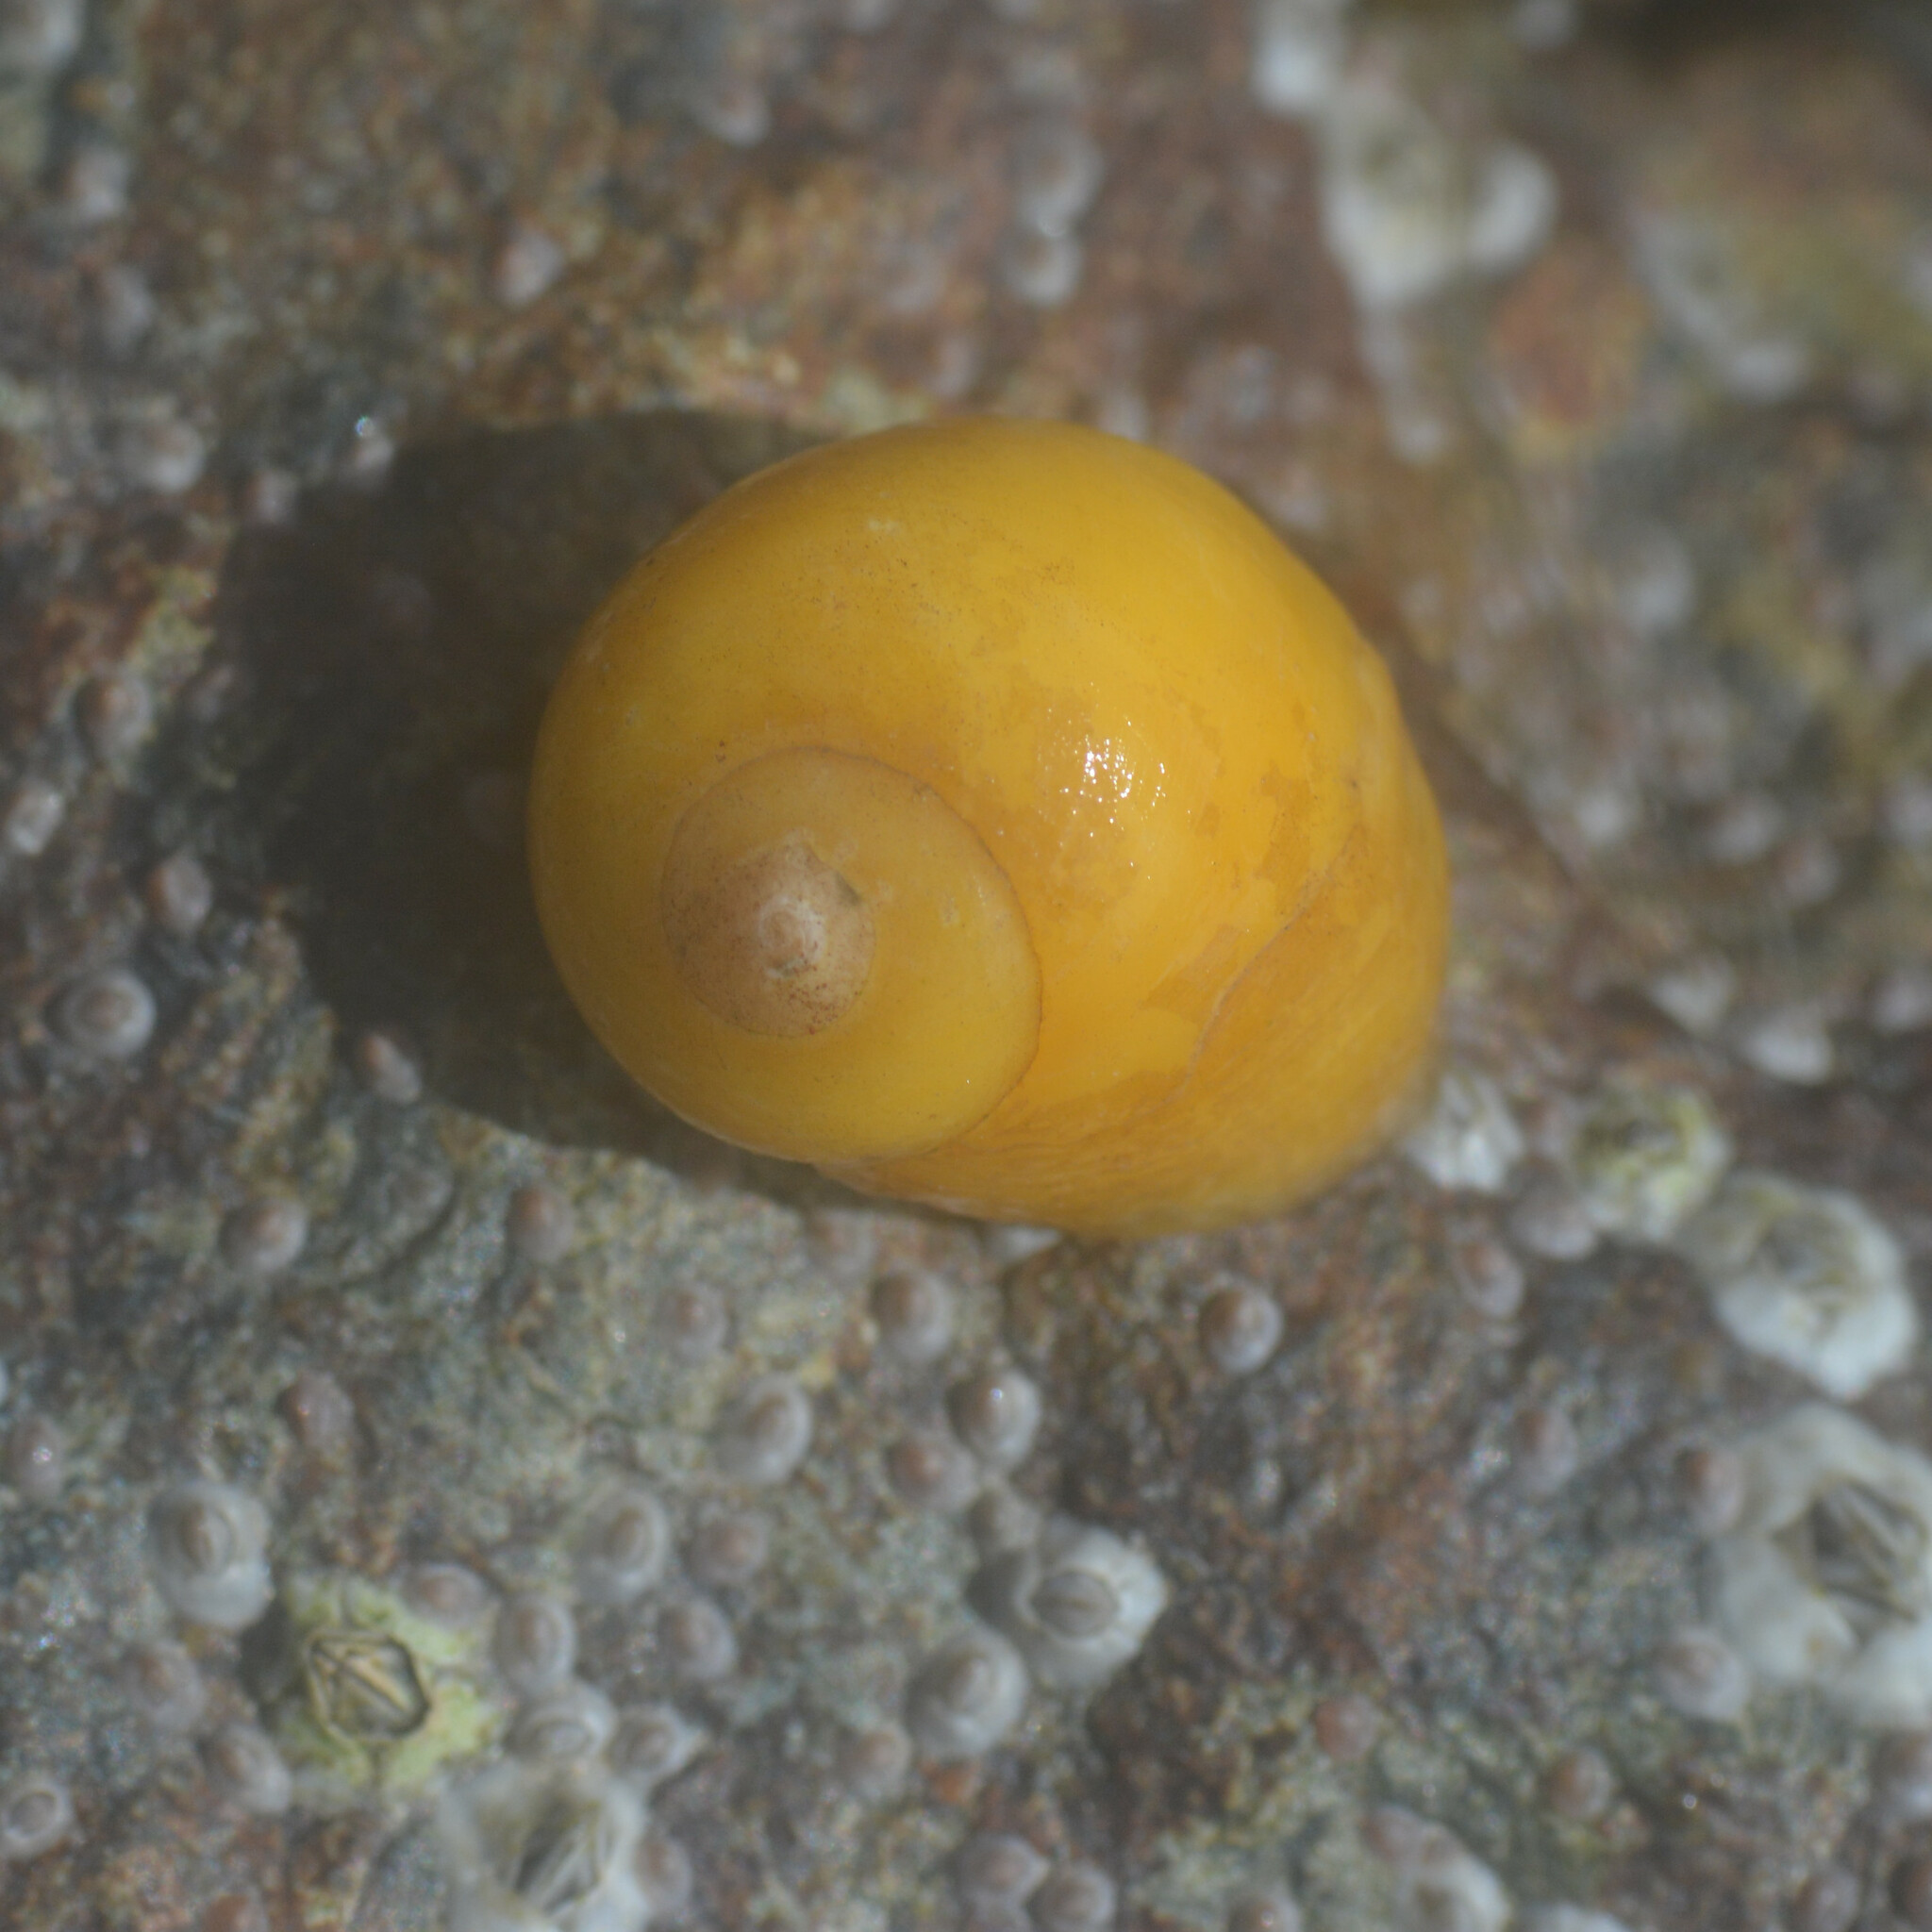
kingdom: Animalia
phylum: Mollusca
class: Gastropoda
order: Littorinimorpha
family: Littorinidae
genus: Littorina
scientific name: Littorina
